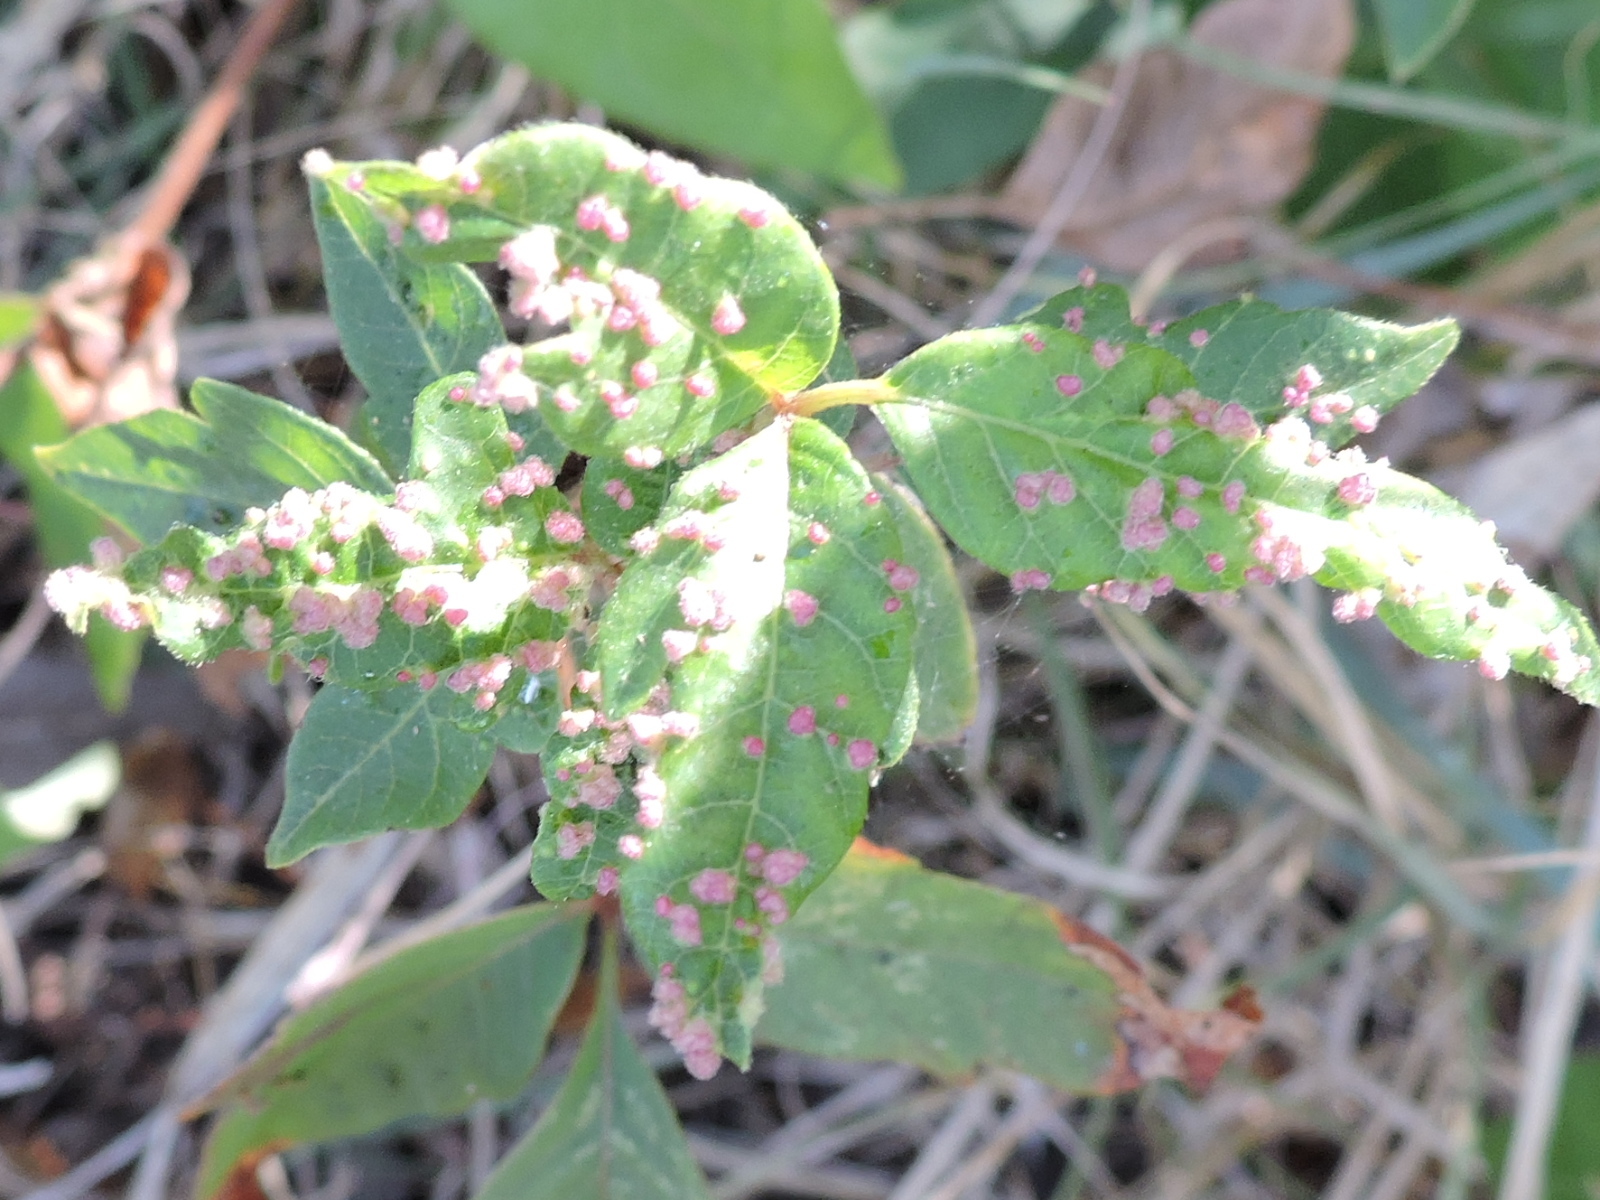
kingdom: Animalia
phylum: Arthropoda
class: Arachnida
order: Trombidiformes
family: Eriophyidae
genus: Aculops
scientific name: Aculops
